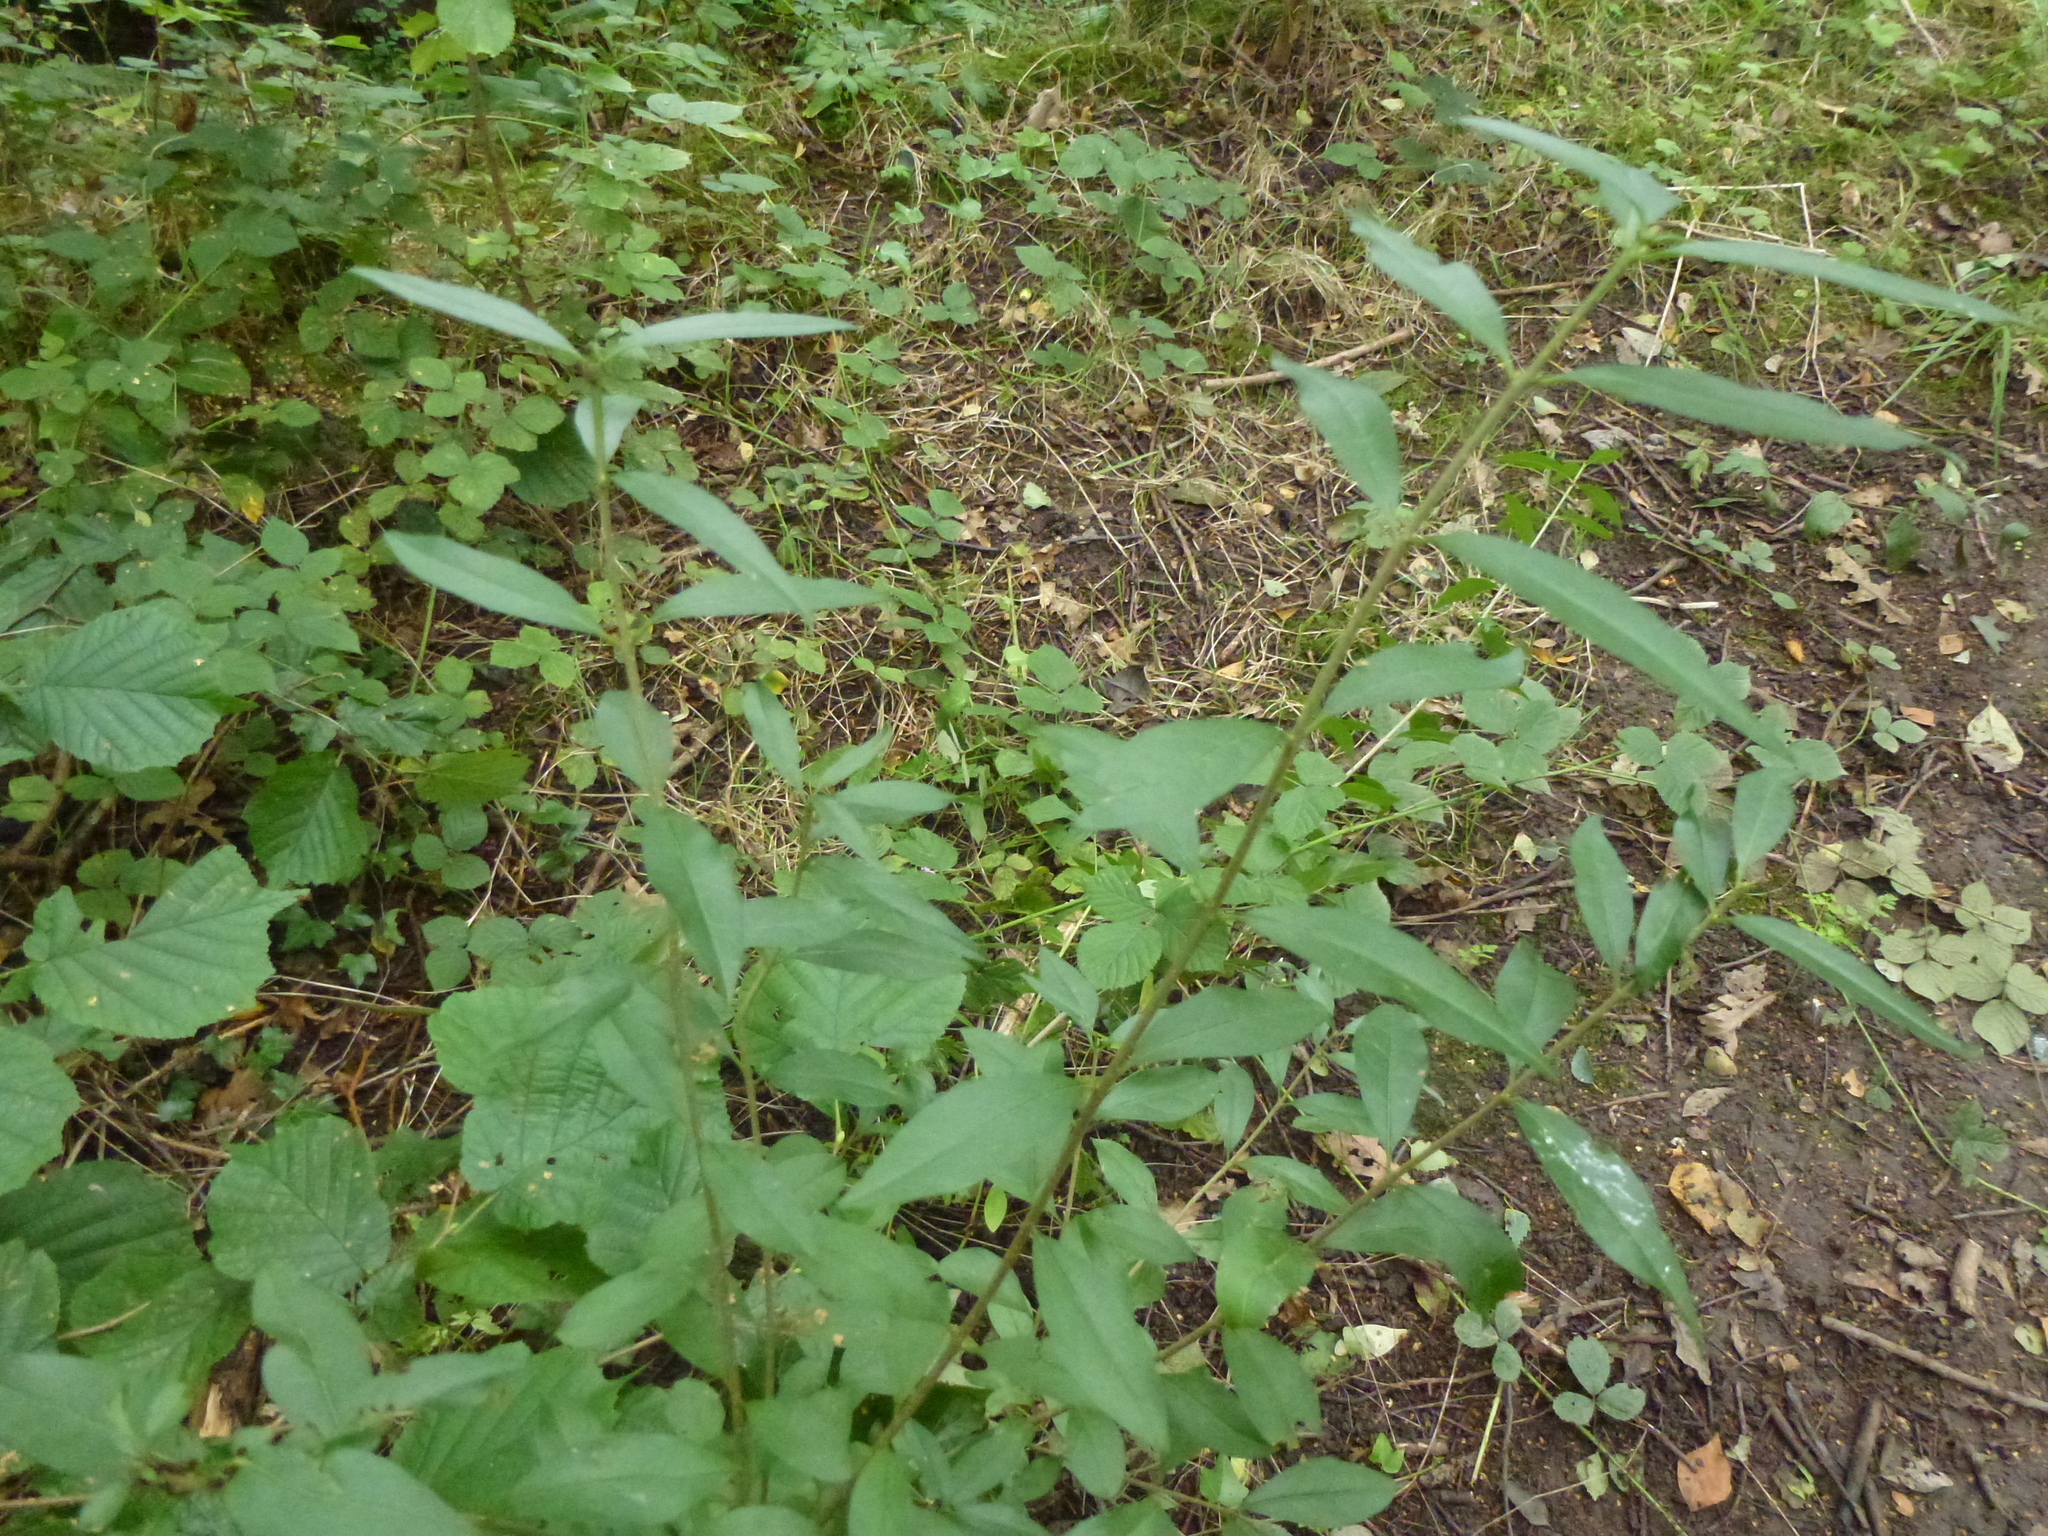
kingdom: Plantae
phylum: Tracheophyta
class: Magnoliopsida
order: Lamiales
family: Oleaceae
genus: Ligustrum
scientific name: Ligustrum vulgare
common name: Wild privet
